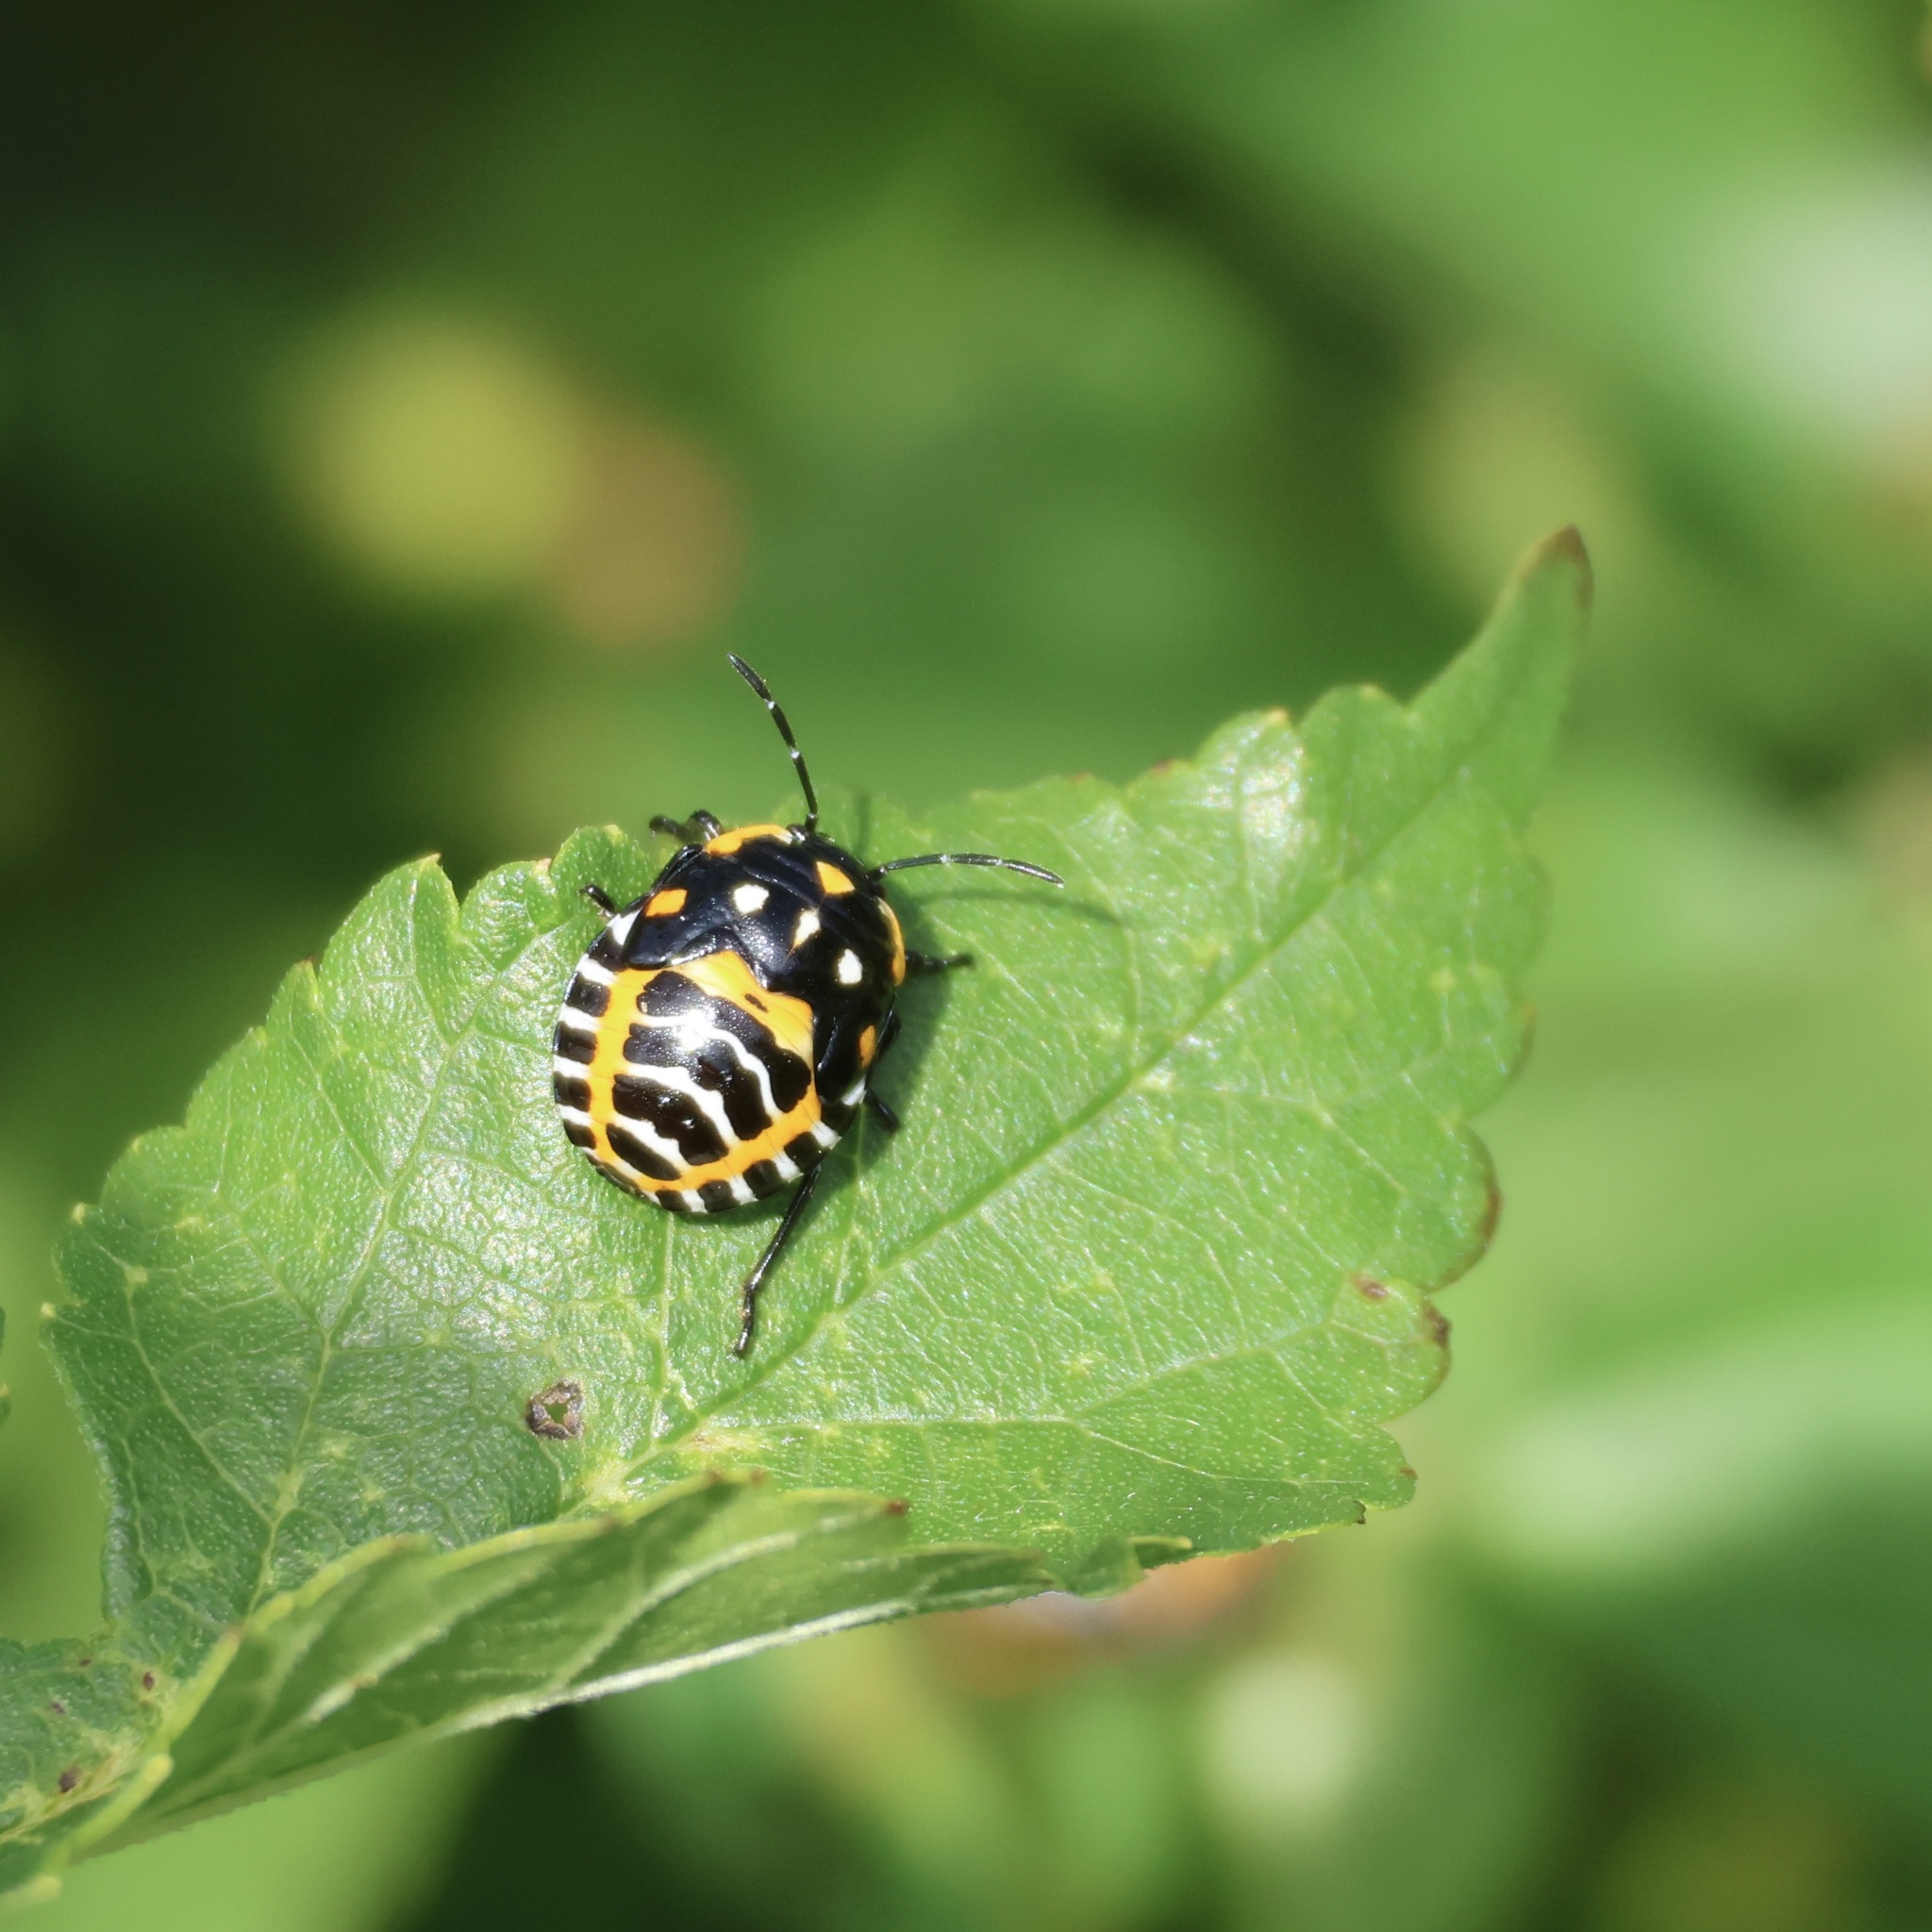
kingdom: Animalia
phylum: Arthropoda
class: Insecta
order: Hemiptera
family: Pentatomidae
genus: Murgantia
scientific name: Murgantia histrionica
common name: Harlequin bug
